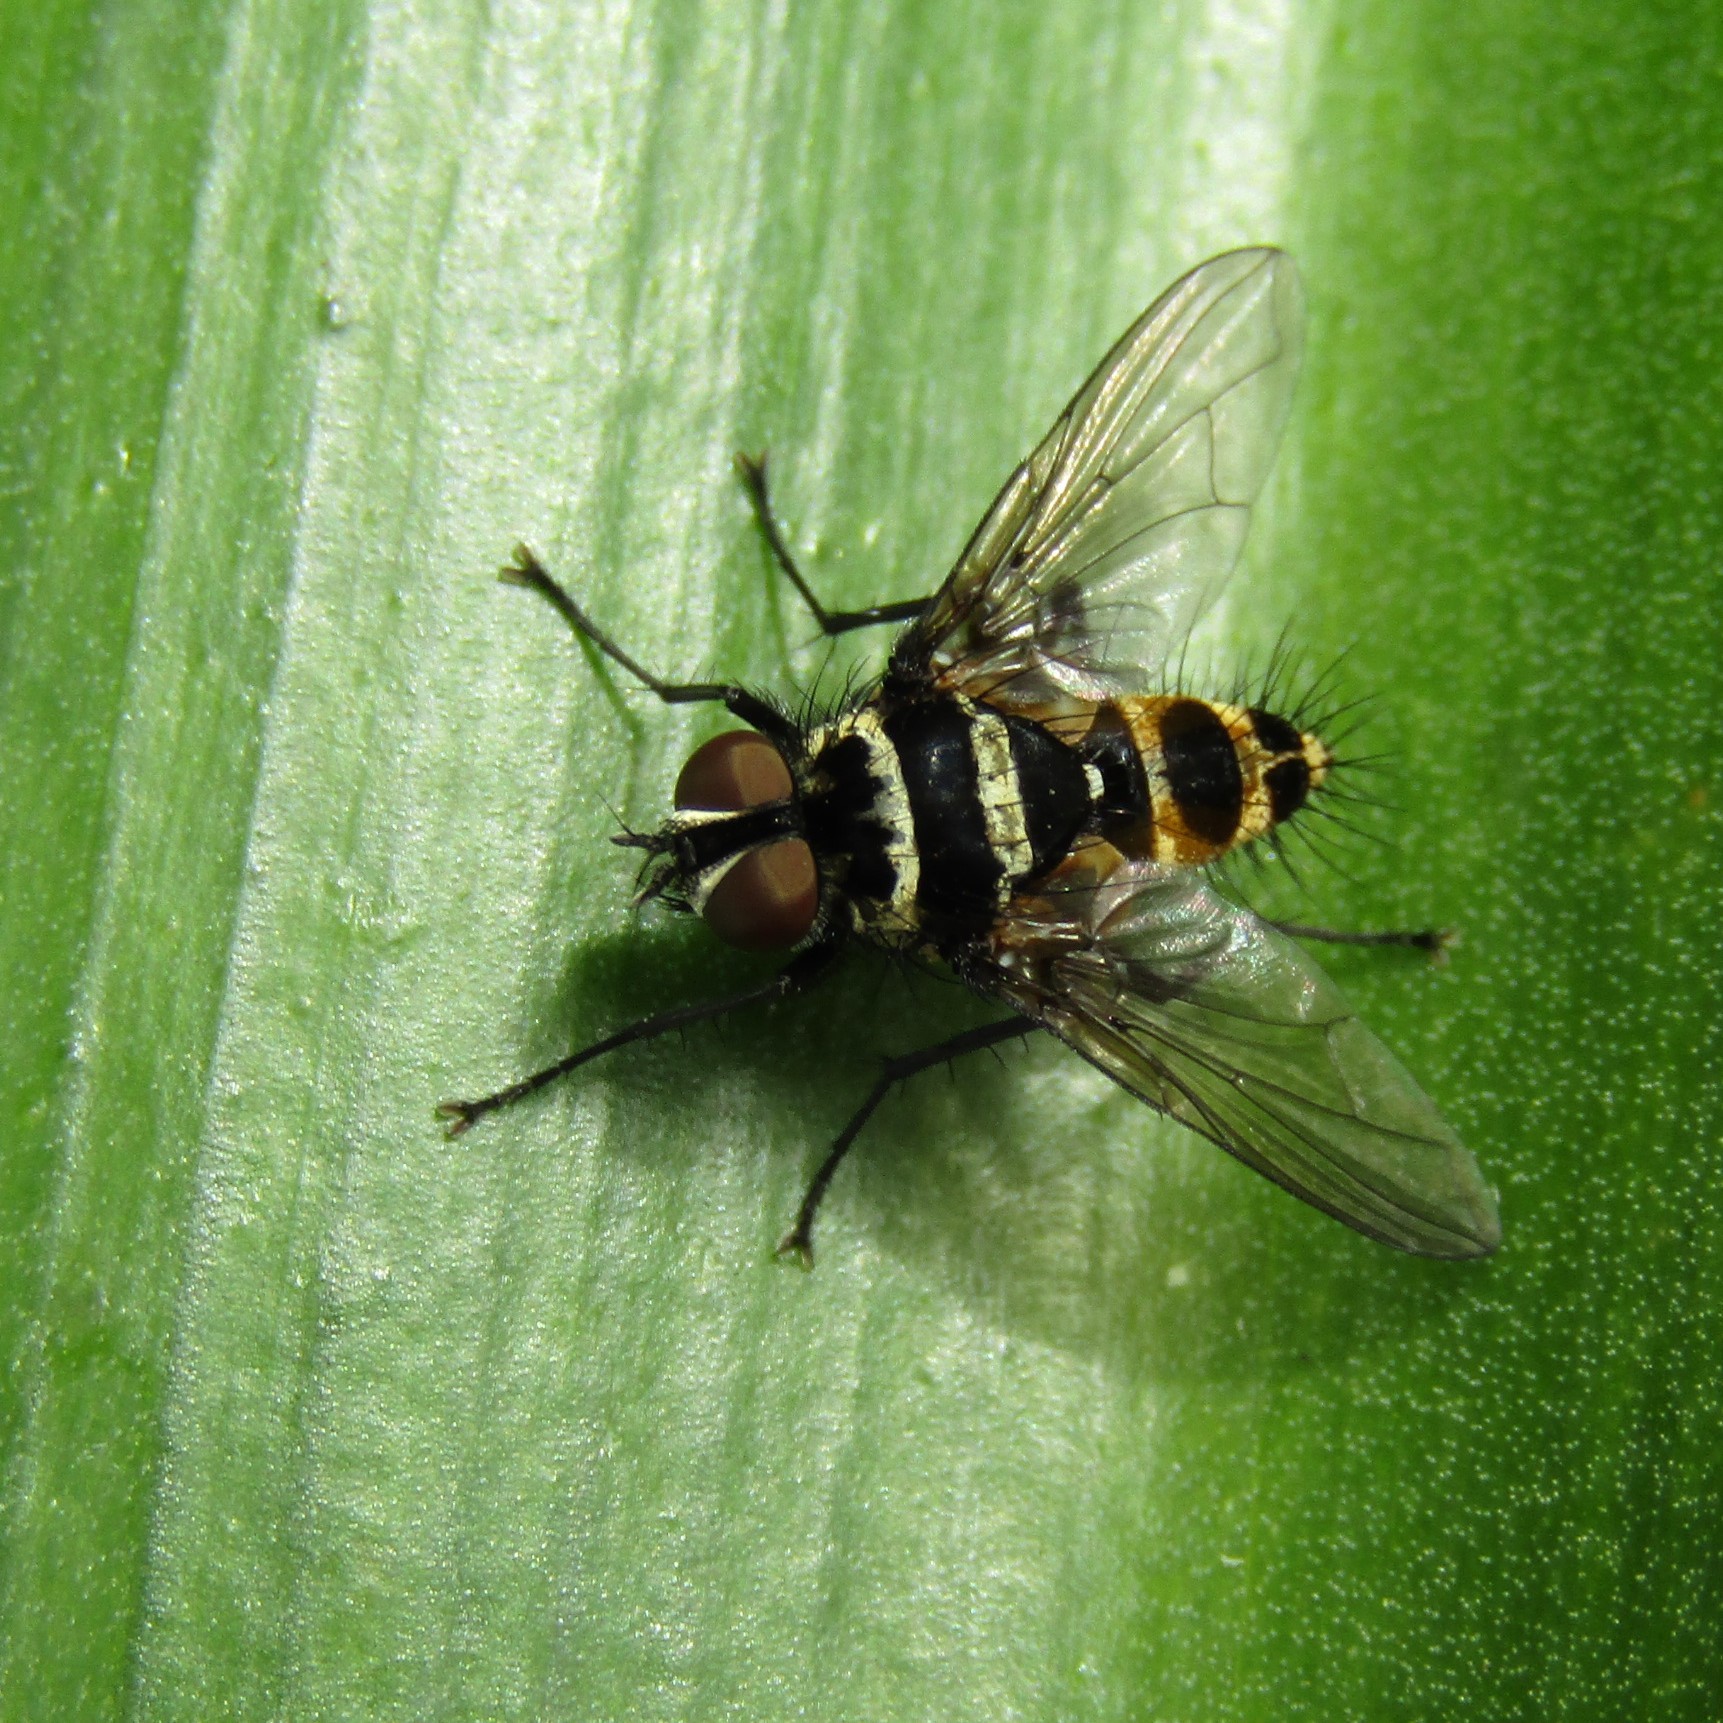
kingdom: Animalia
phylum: Arthropoda
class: Insecta
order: Diptera
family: Tachinidae
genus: Trigonospila
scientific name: Trigonospila brevifacies
